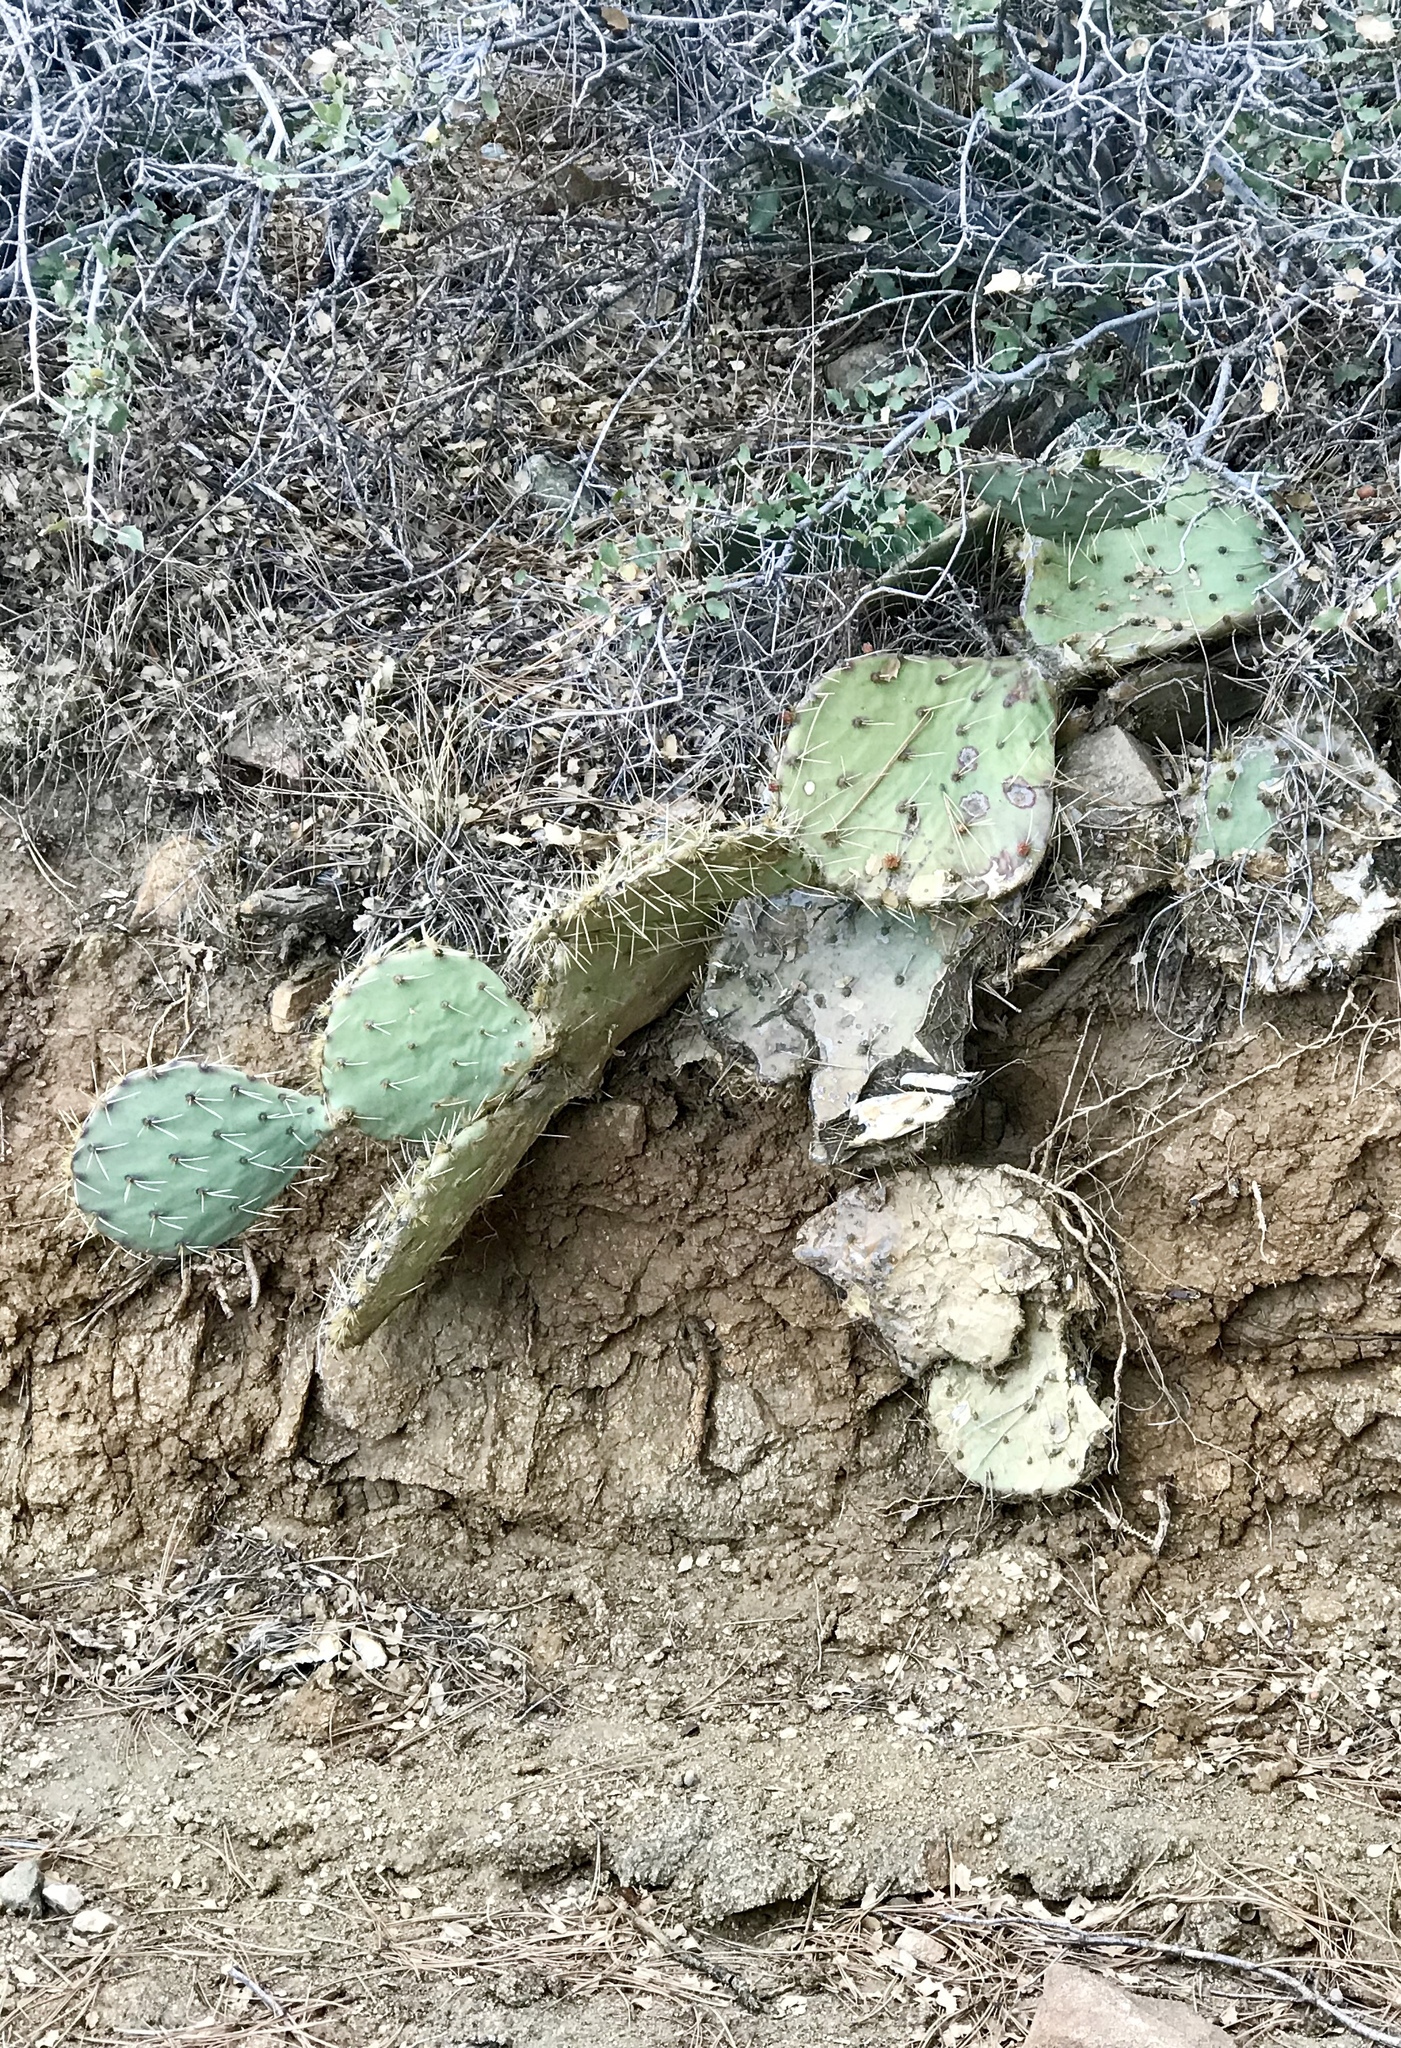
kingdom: Plantae
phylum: Tracheophyta
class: Magnoliopsida
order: Caryophyllales
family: Cactaceae
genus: Opuntia
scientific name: Opuntia phaeacantha
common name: New mexico prickly-pear
